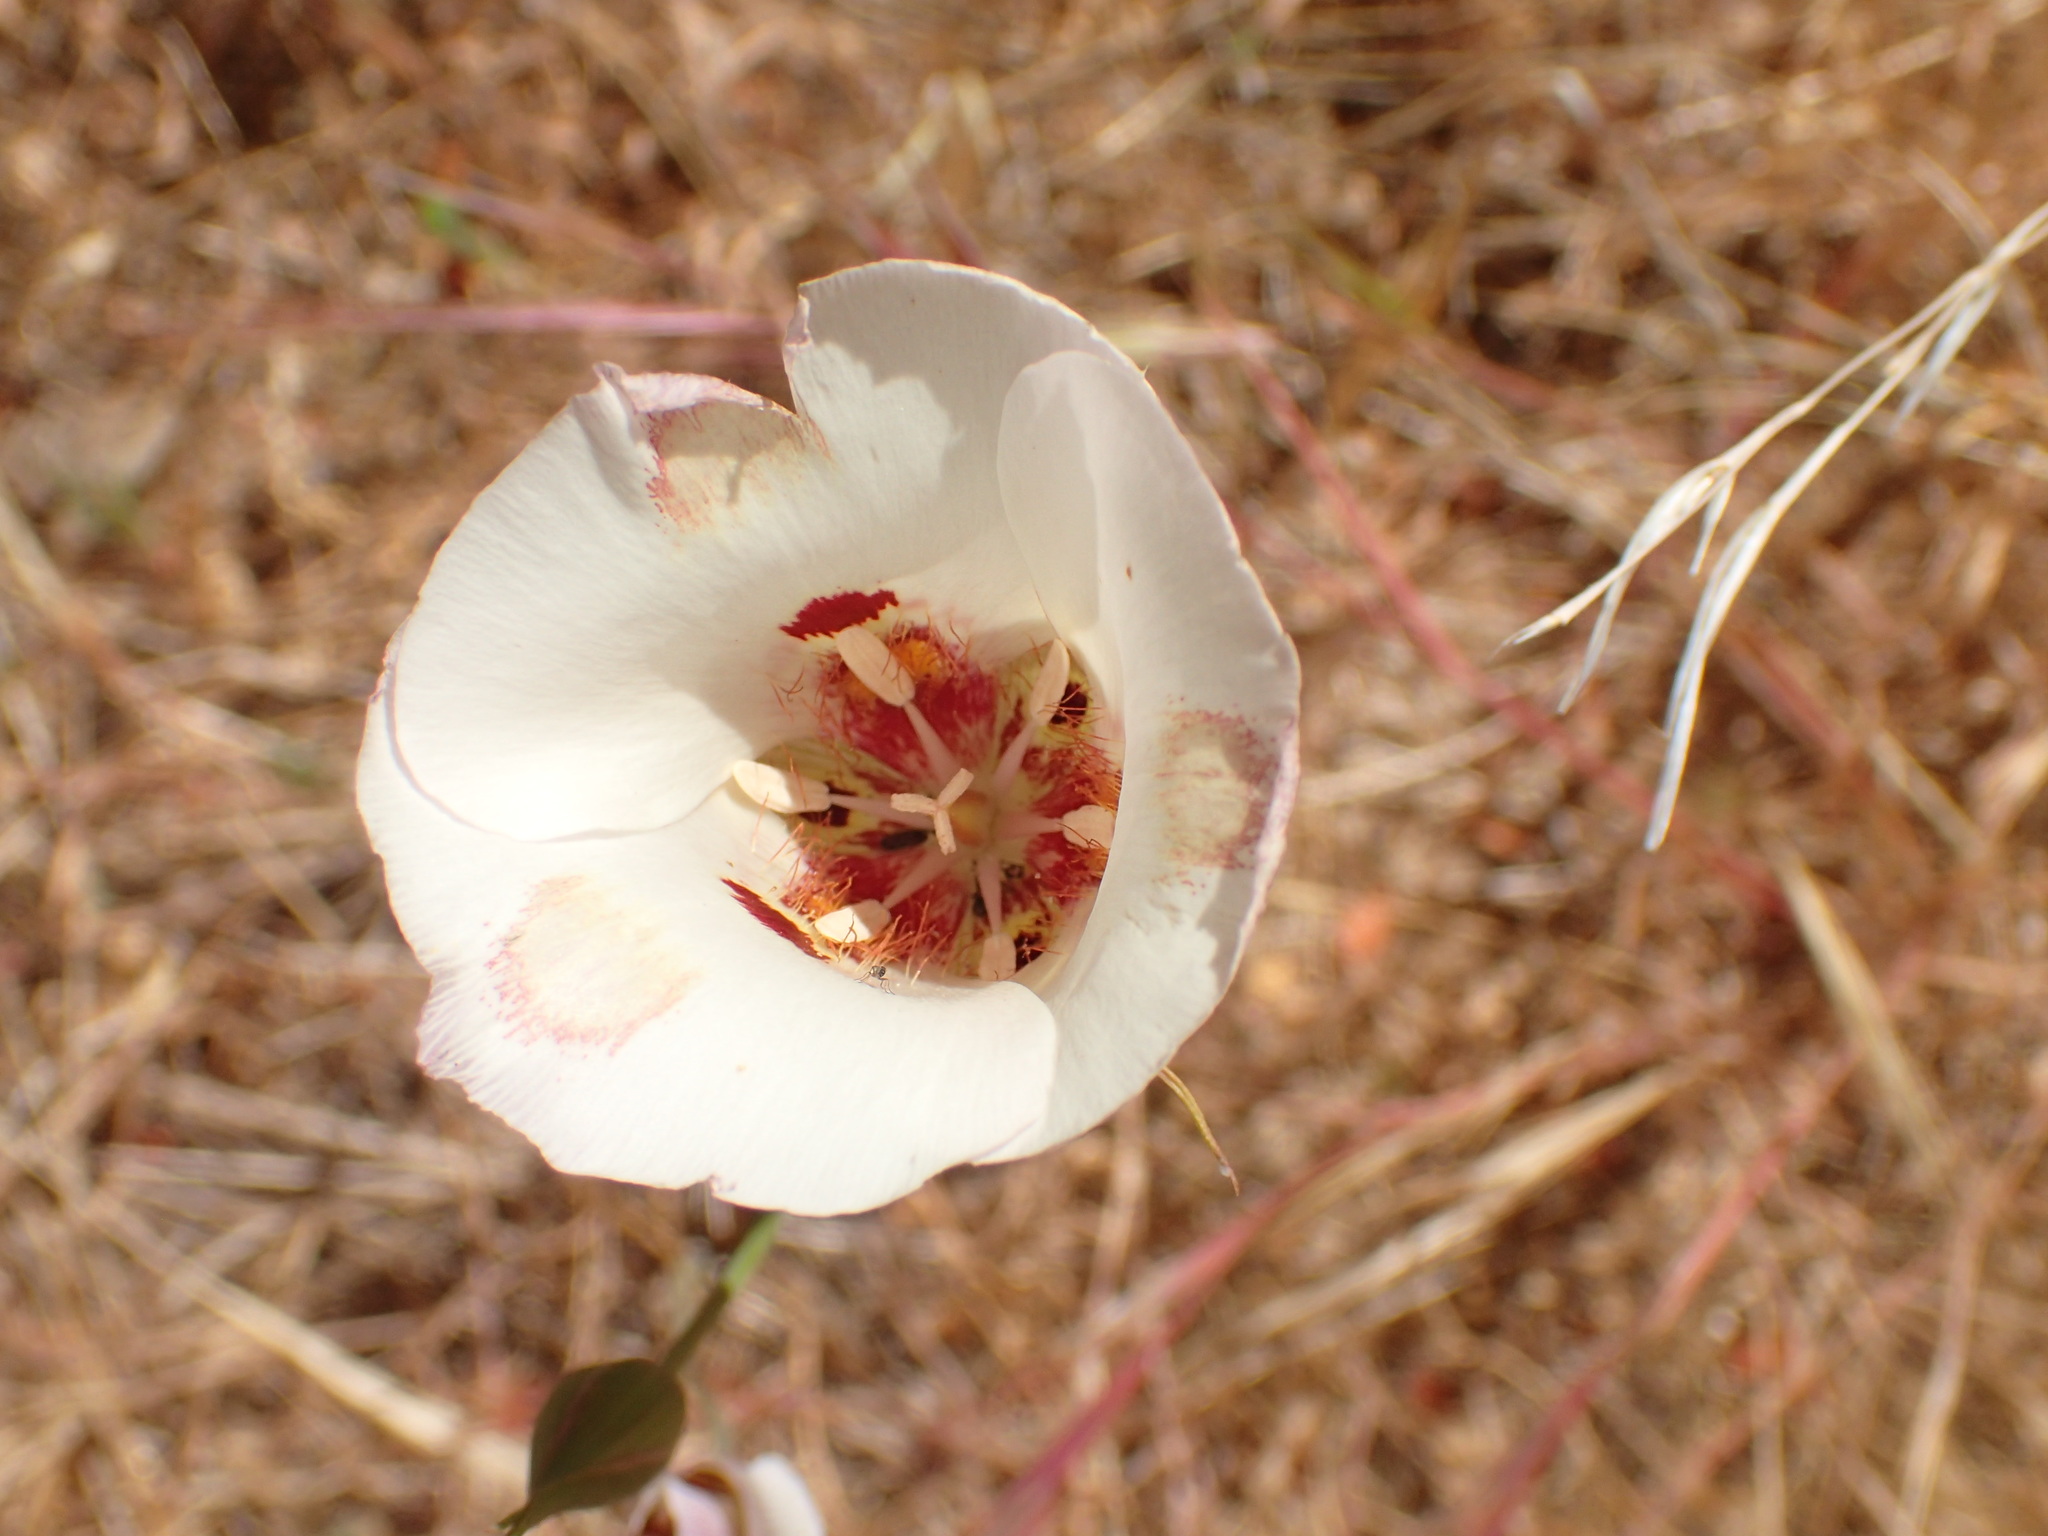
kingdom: Plantae
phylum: Tracheophyta
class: Liliopsida
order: Liliales
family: Liliaceae
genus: Calochortus
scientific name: Calochortus venustus
